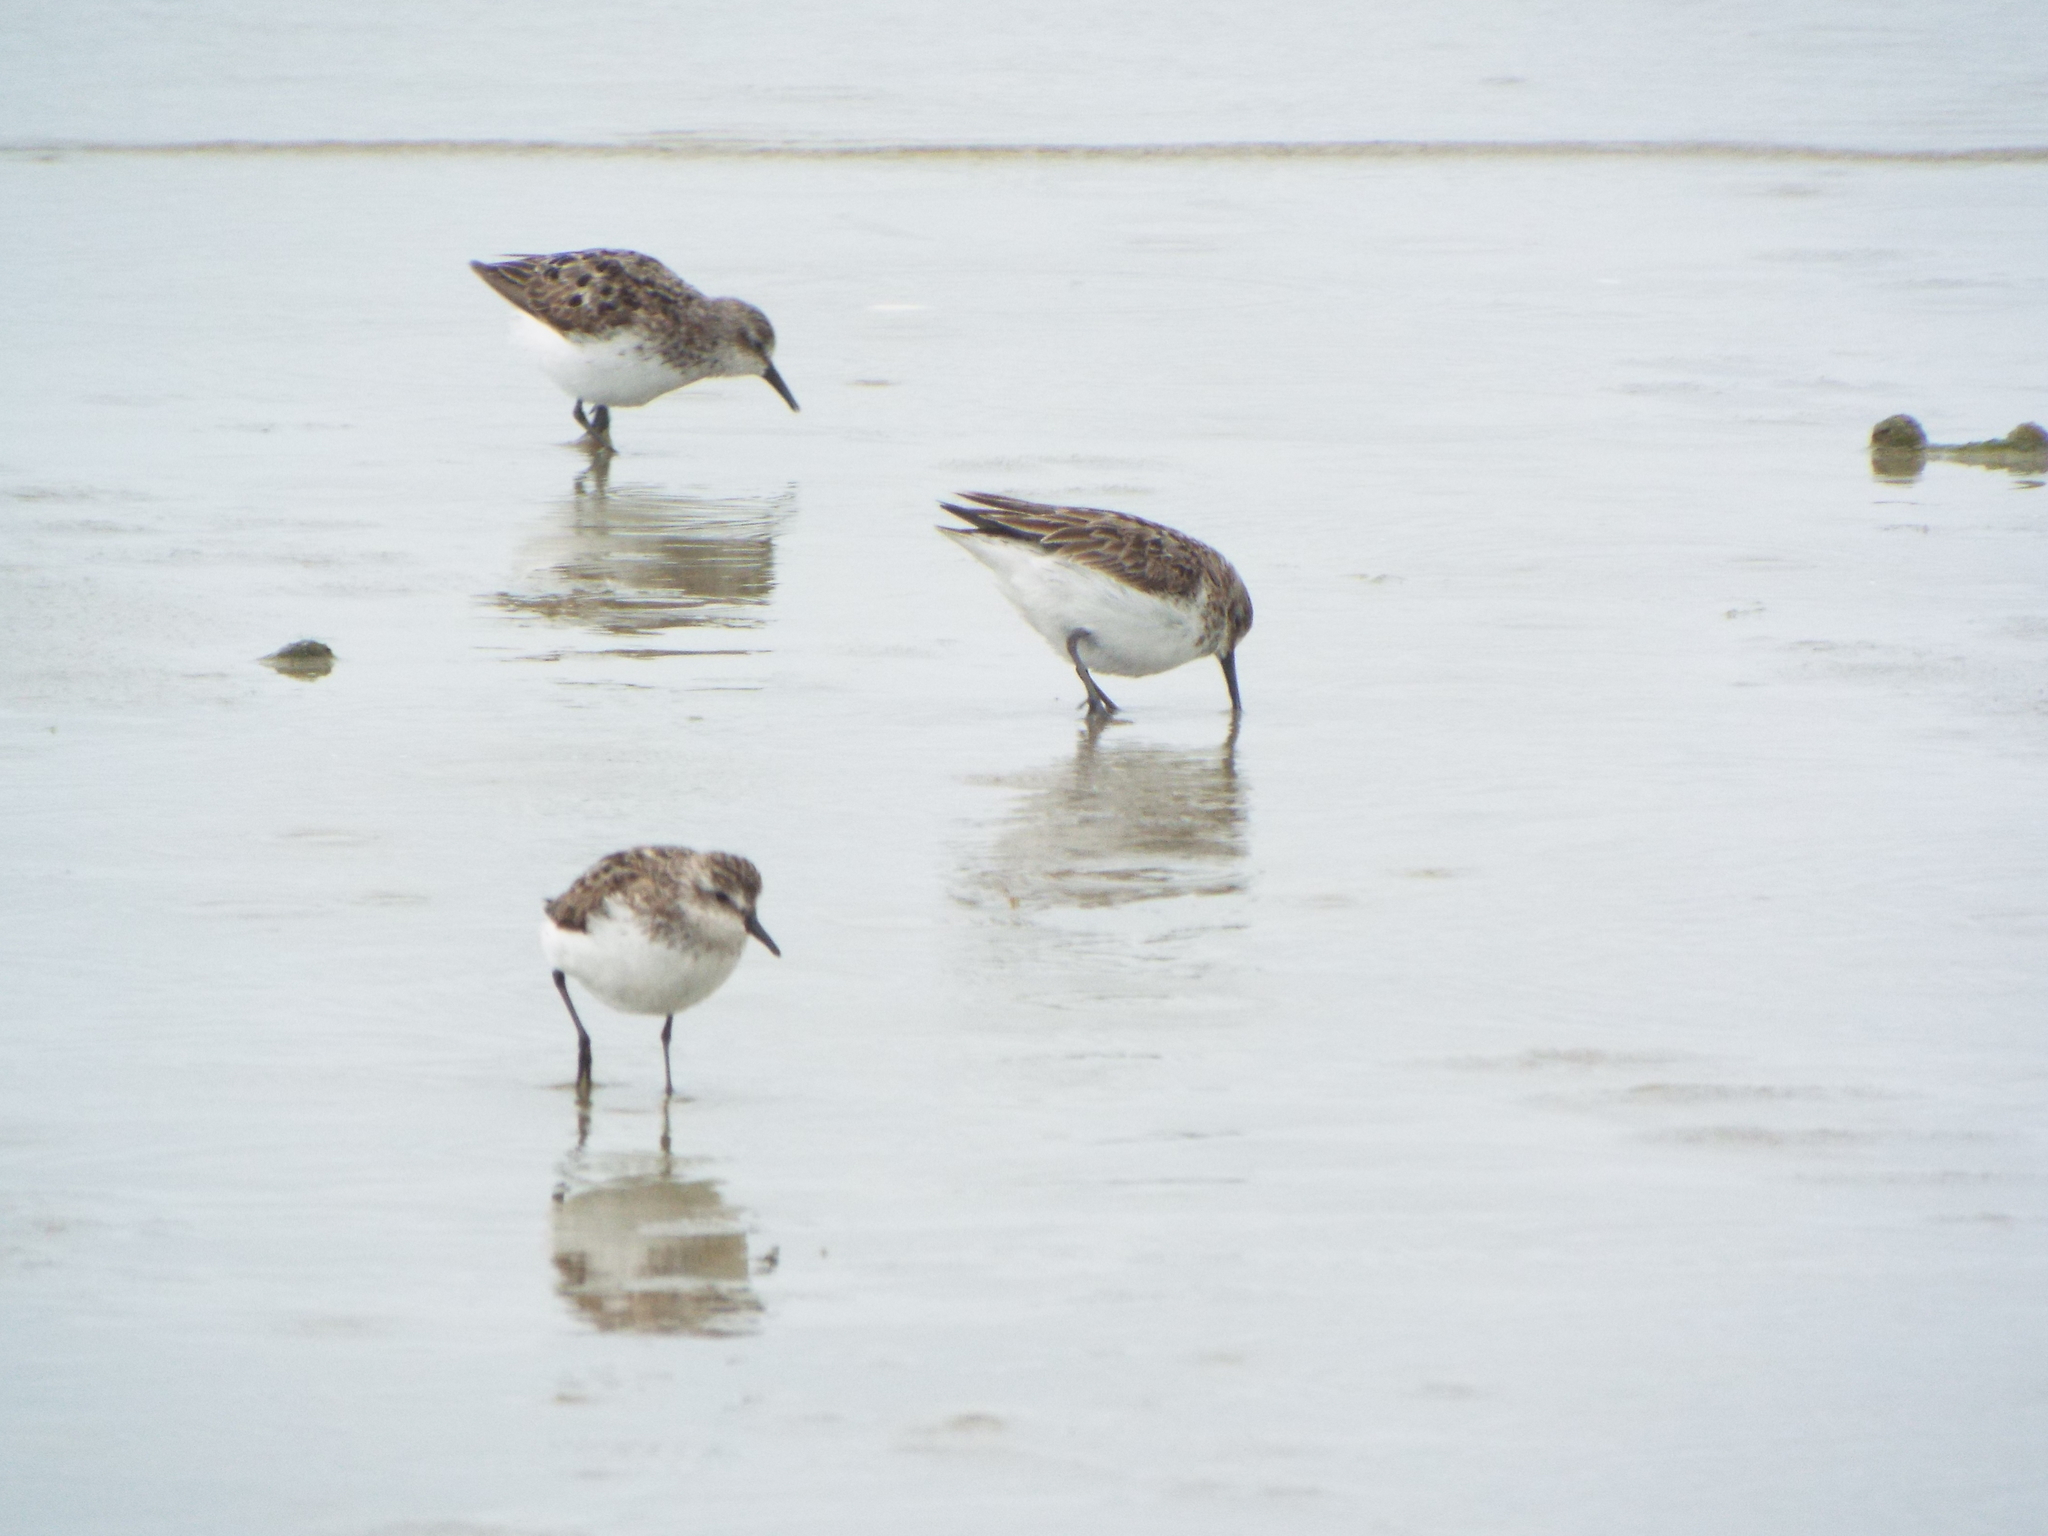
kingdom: Animalia
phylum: Chordata
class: Aves
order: Charadriiformes
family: Scolopacidae
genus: Calidris
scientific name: Calidris pusilla
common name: Semipalmated sandpiper
